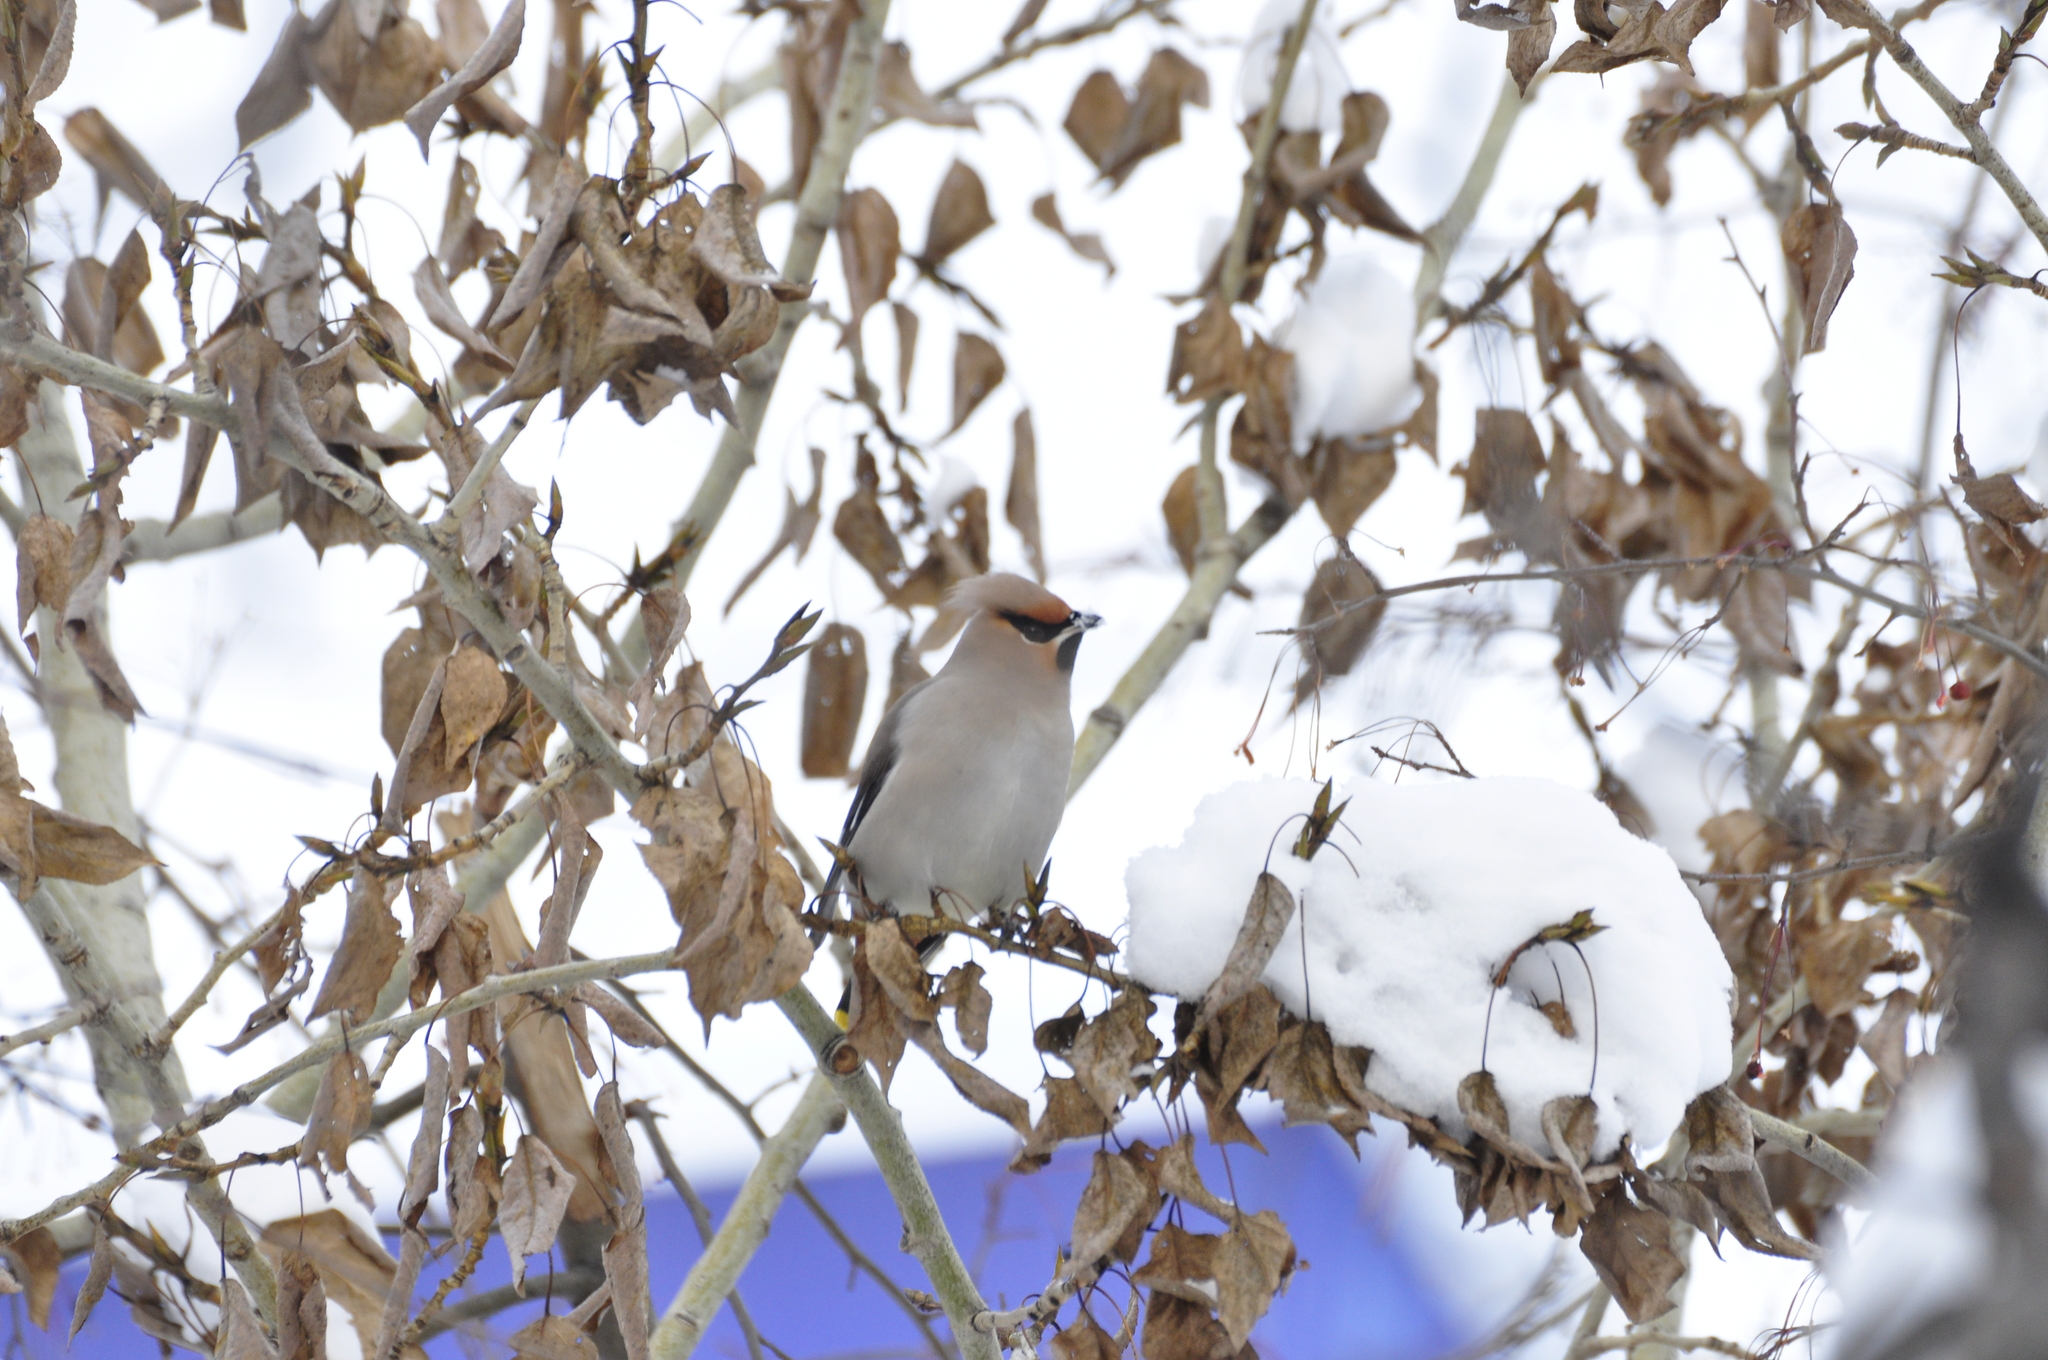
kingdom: Animalia
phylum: Chordata
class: Aves
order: Passeriformes
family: Bombycillidae
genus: Bombycilla
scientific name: Bombycilla garrulus
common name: Bohemian waxwing
